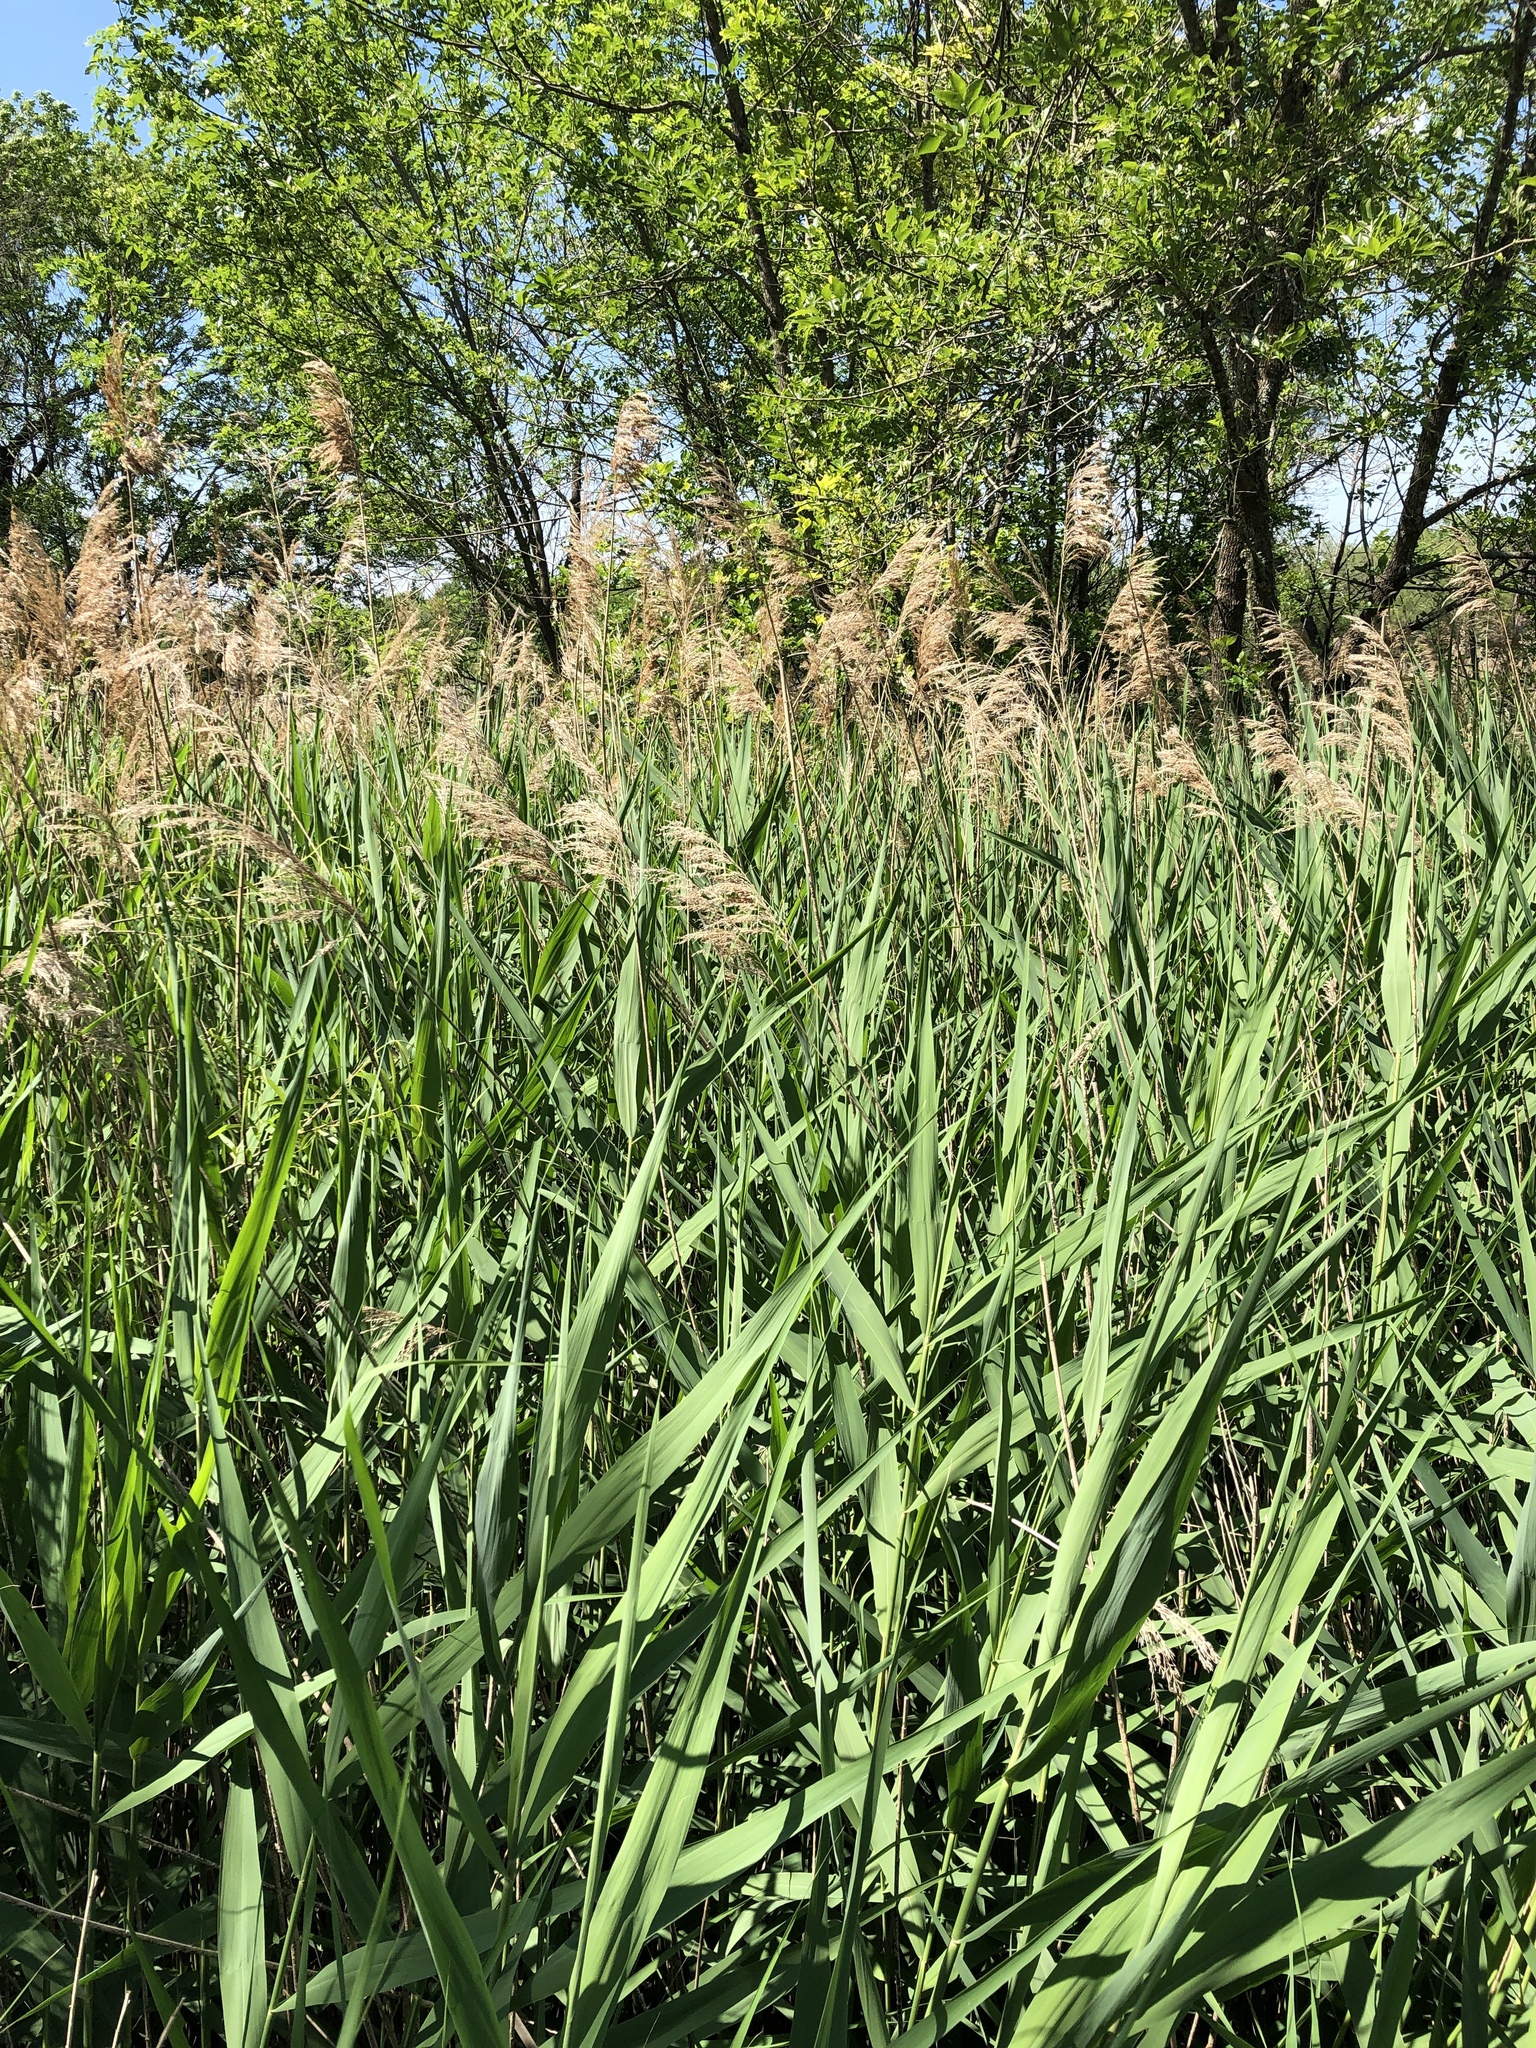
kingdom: Plantae
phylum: Tracheophyta
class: Liliopsida
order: Poales
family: Poaceae
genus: Phragmites
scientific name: Phragmites australis
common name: Common reed
